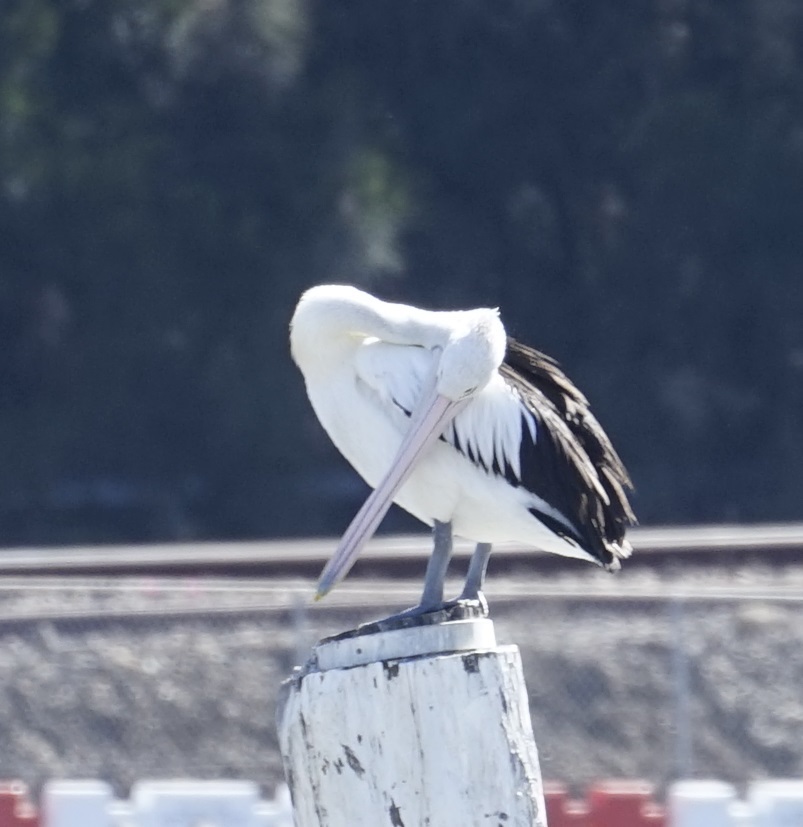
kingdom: Animalia
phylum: Chordata
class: Aves
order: Pelecaniformes
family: Pelecanidae
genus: Pelecanus
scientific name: Pelecanus conspicillatus
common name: Australian pelican
